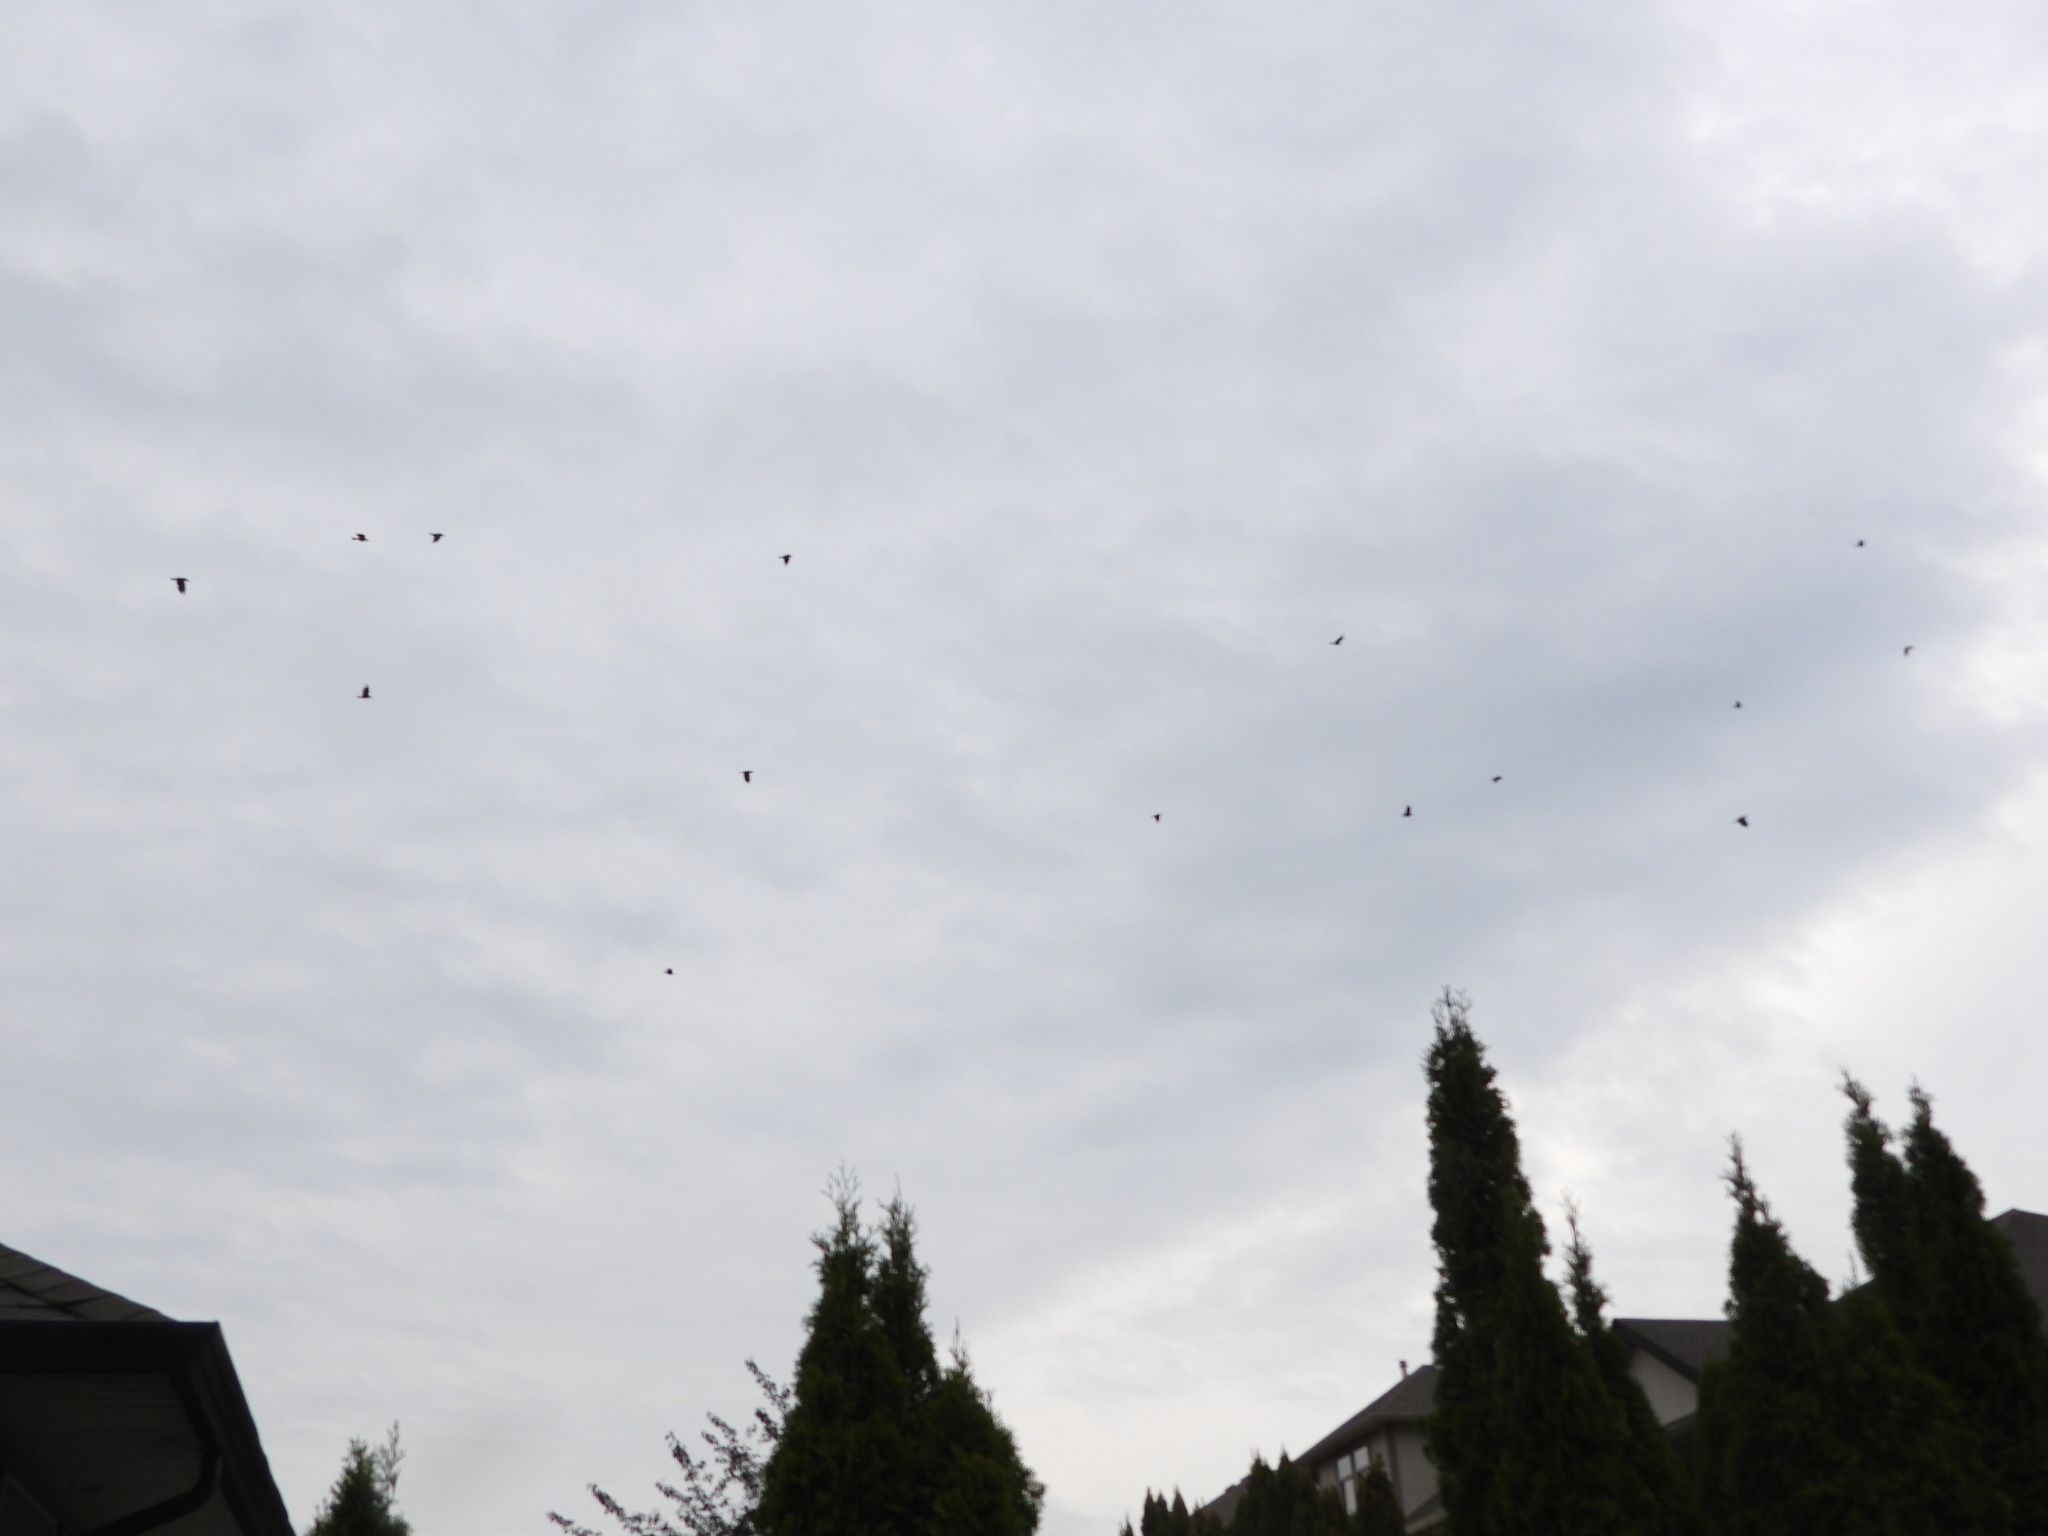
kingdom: Animalia
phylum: Chordata
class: Aves
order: Passeriformes
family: Corvidae
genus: Corvus
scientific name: Corvus brachyrhynchos
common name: American crow
